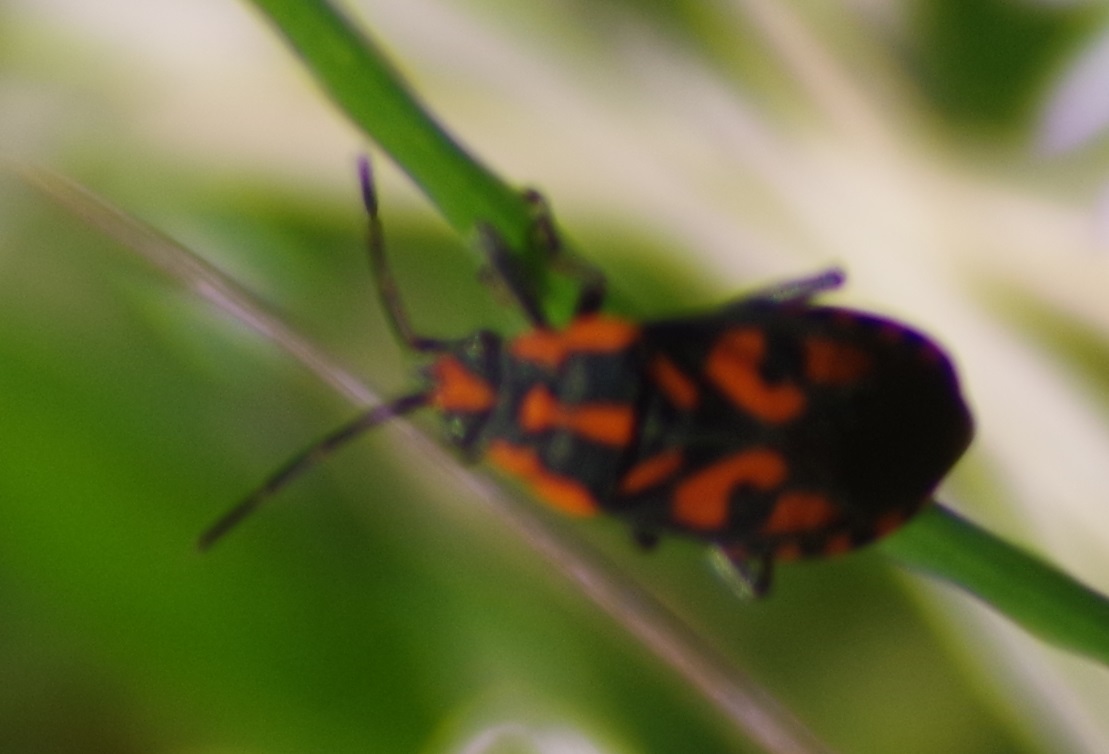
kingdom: Animalia
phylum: Arthropoda
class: Insecta
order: Hemiptera
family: Lygaeidae
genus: Spilostethus
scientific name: Spilostethus saxatilis
